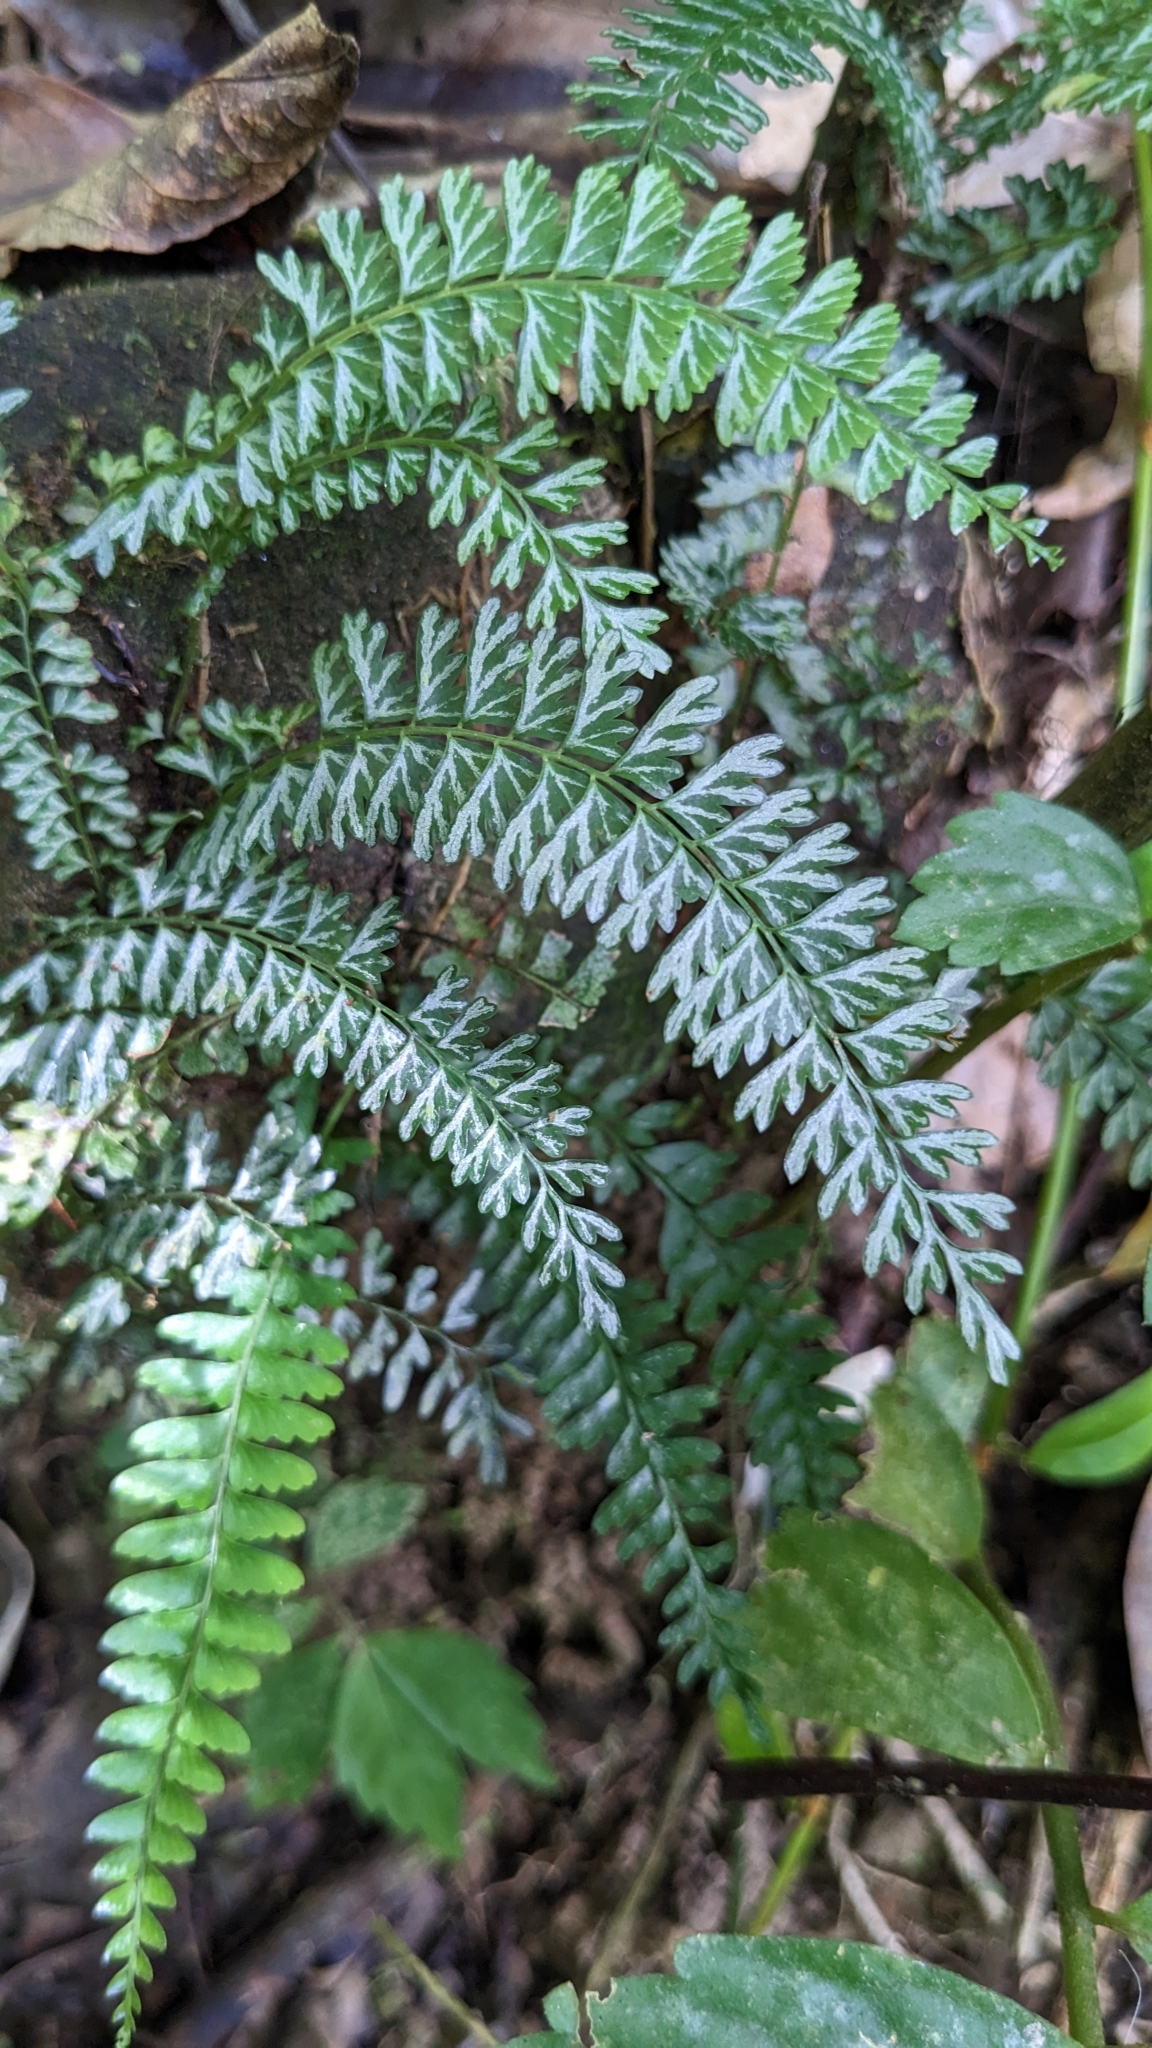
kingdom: Plantae
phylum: Tracheophyta
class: Polypodiopsida
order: Polypodiales
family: Lindsaeaceae
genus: Lindsaea
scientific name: Lindsaea yaeyamensis
